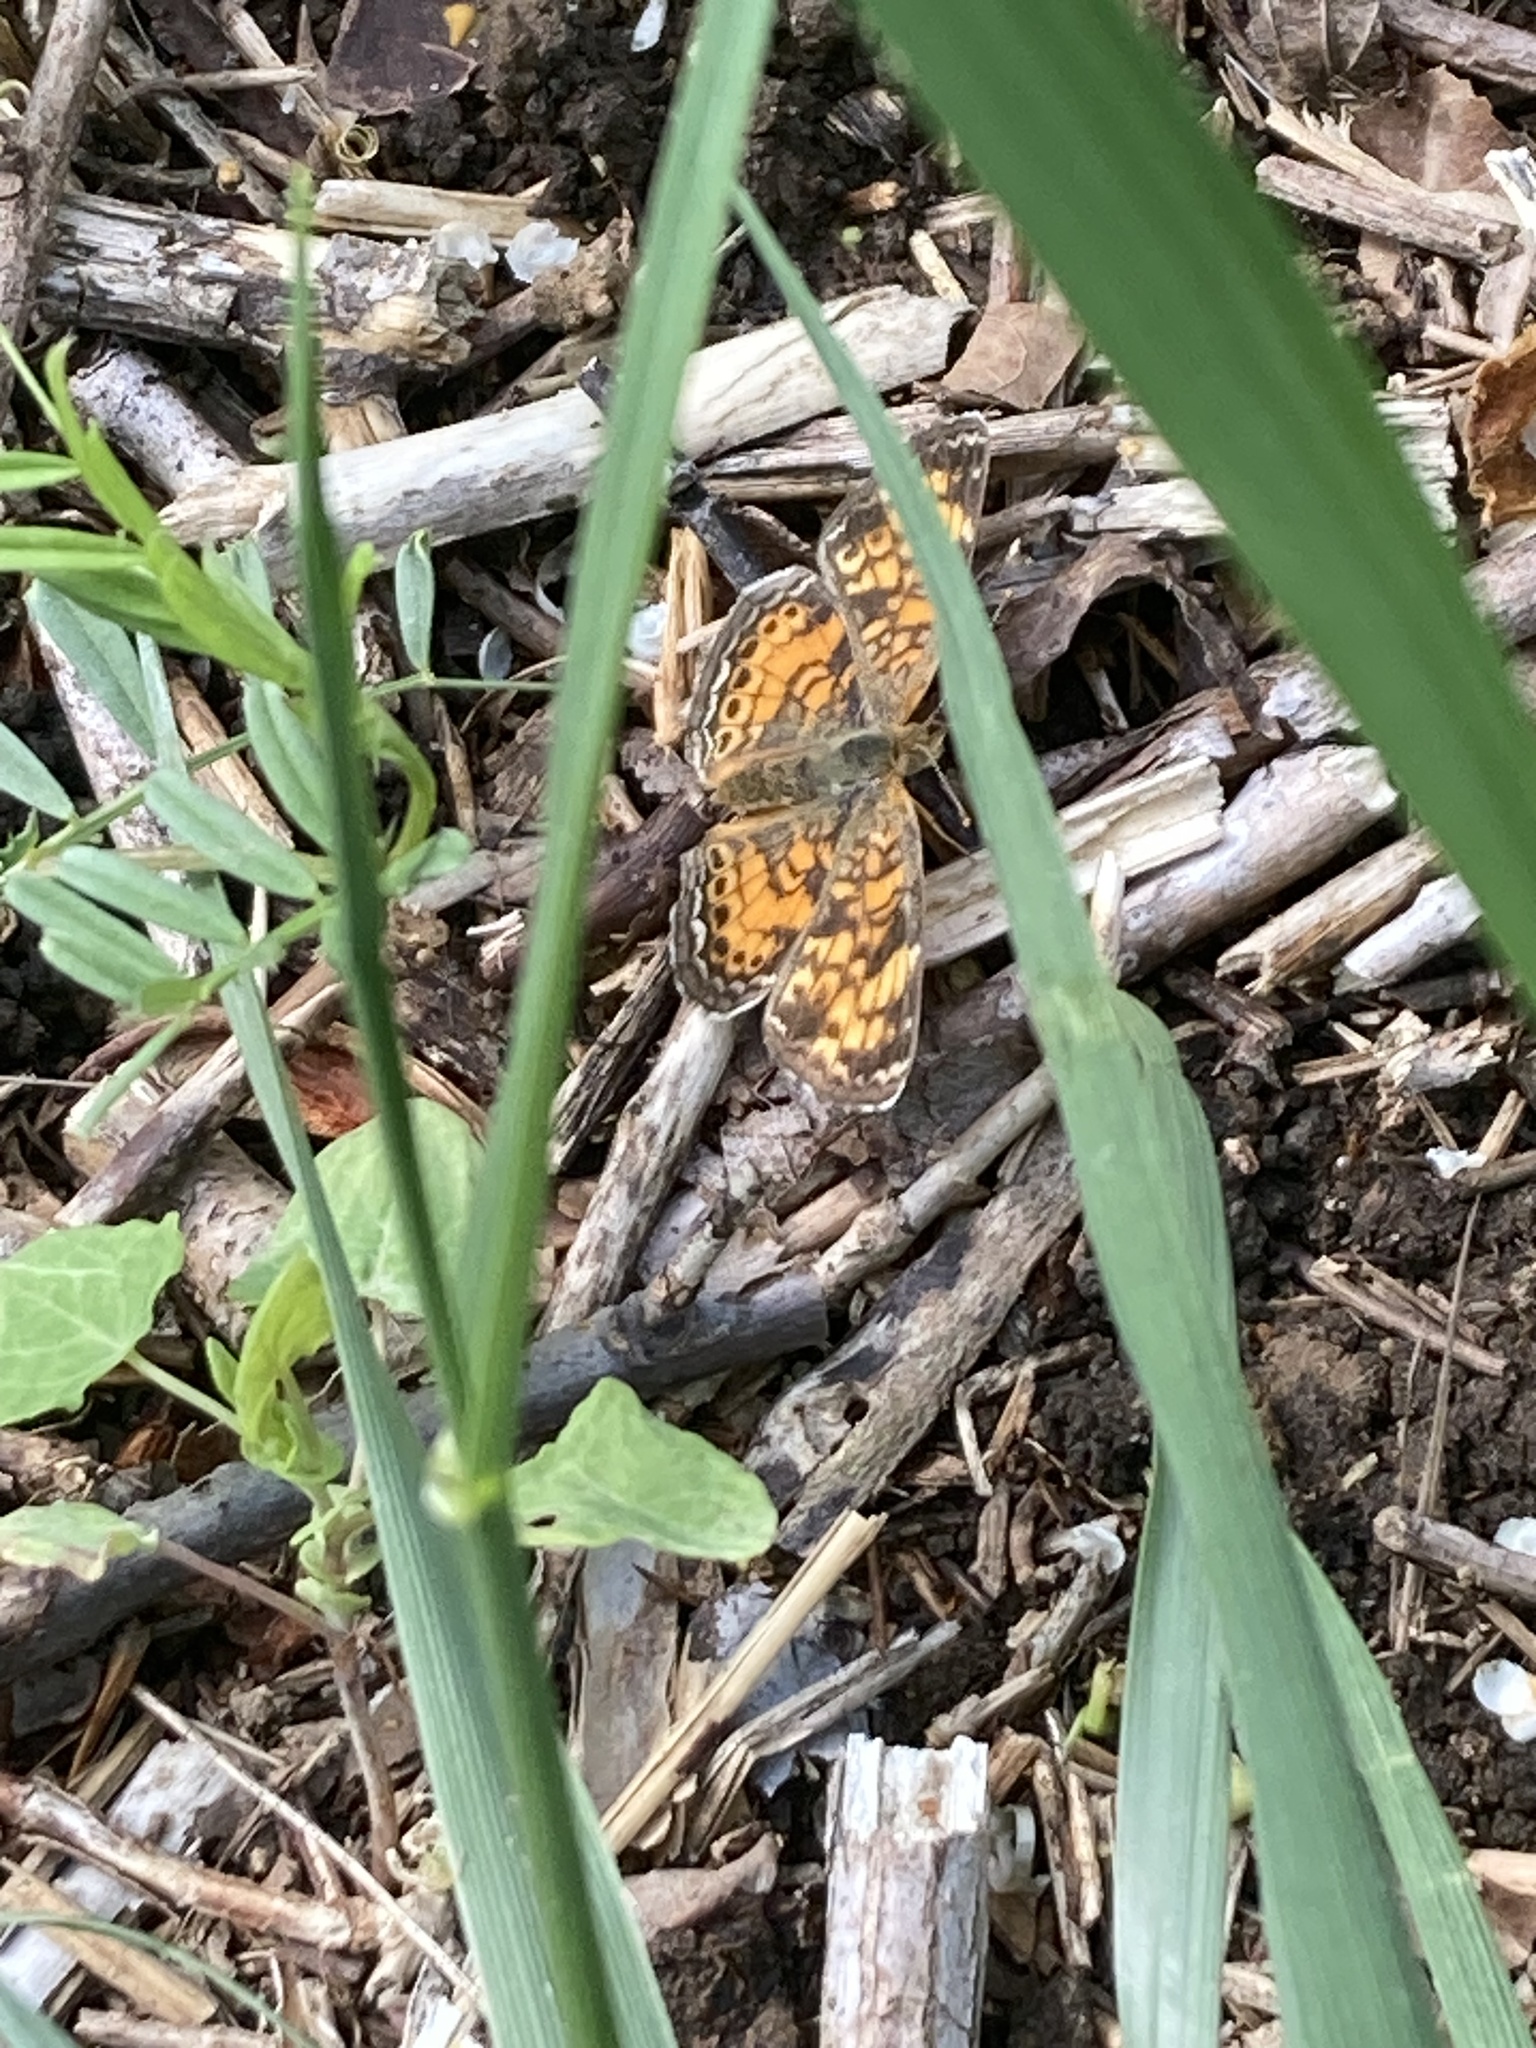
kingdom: Animalia
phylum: Arthropoda
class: Insecta
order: Lepidoptera
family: Nymphalidae
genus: Phyciodes
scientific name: Phyciodes tharos
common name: Pearl crescent
